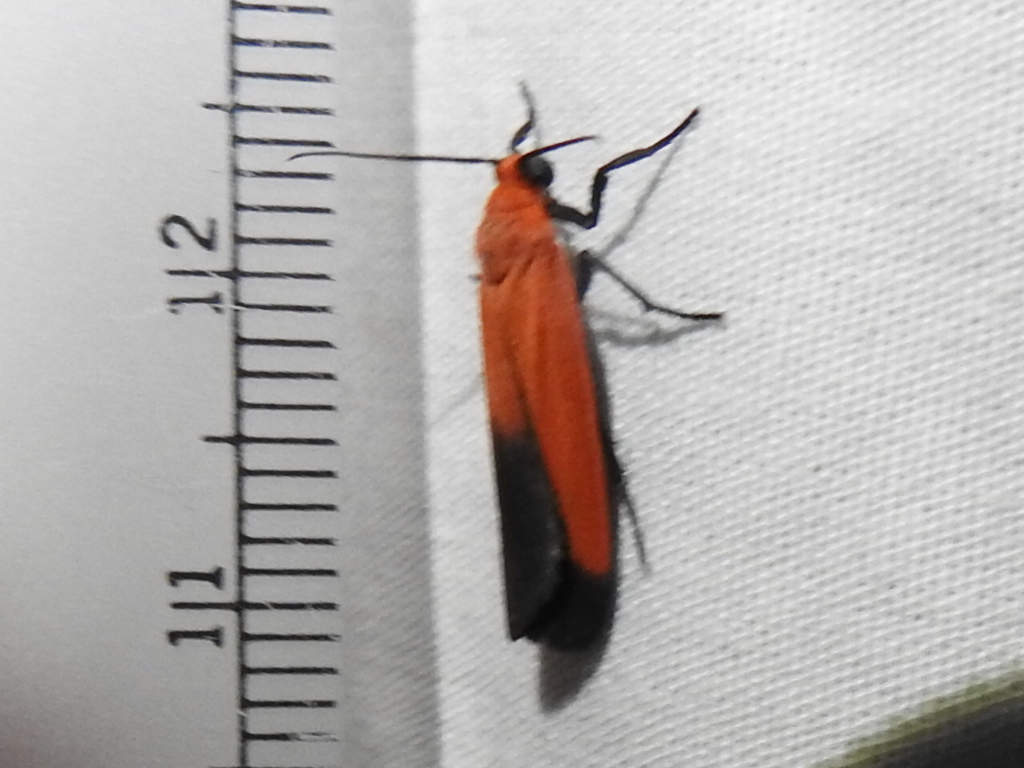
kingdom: Animalia
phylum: Arthropoda
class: Insecta
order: Lepidoptera
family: Erebidae
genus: Ptychoglene
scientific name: Ptychoglene coccinea
